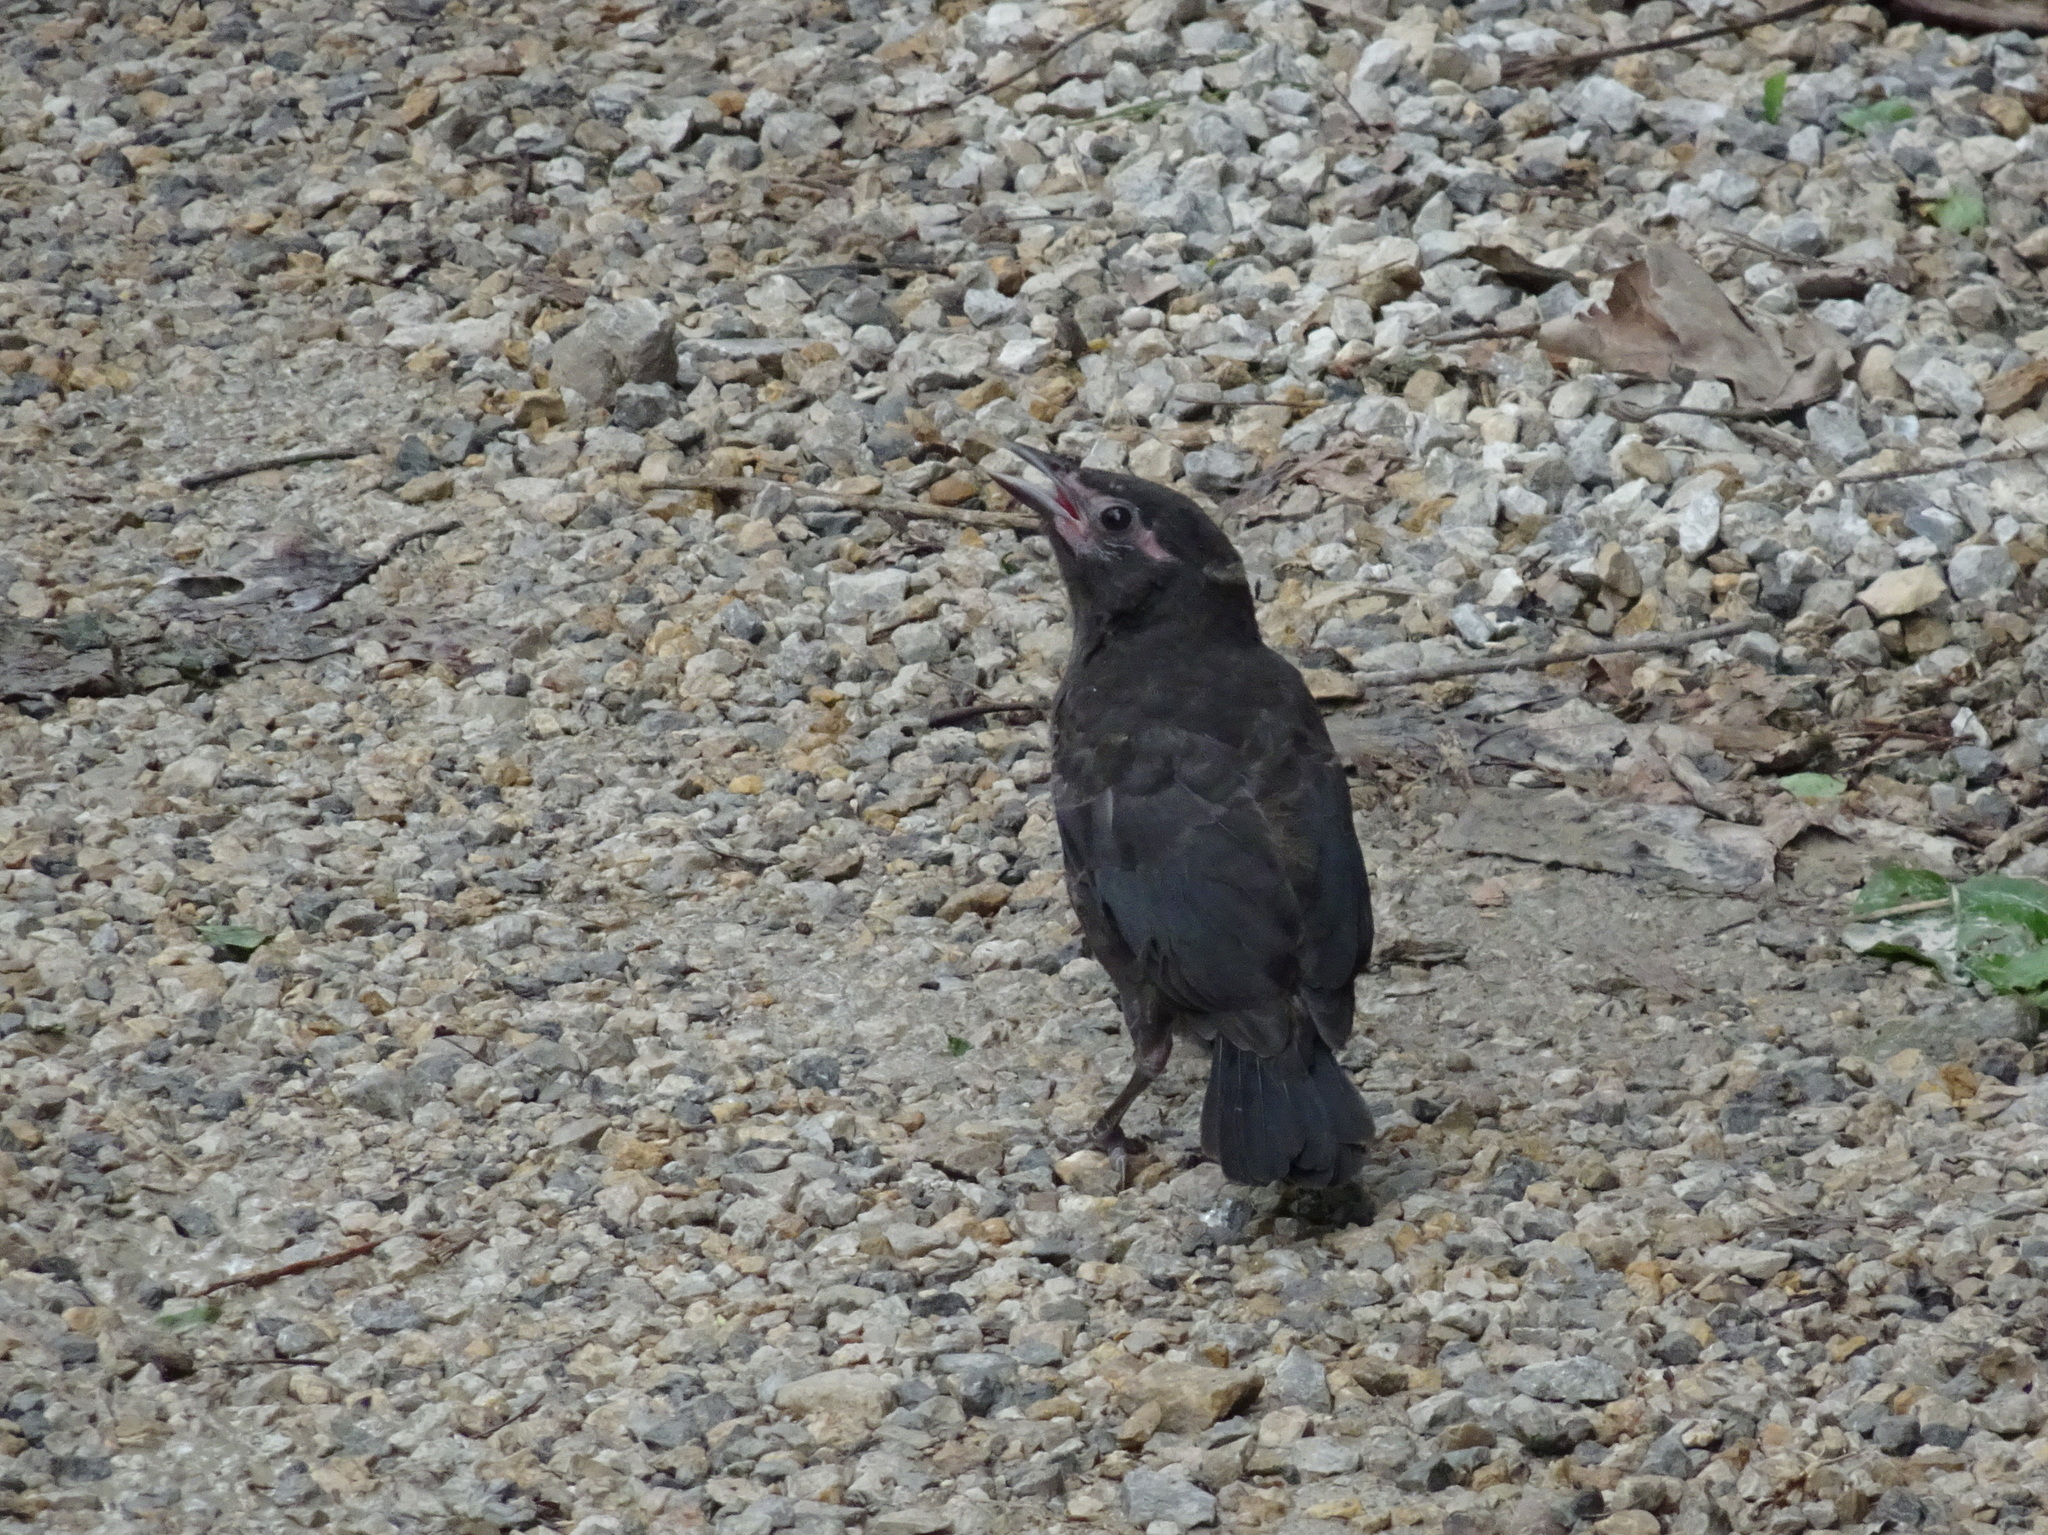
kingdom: Animalia
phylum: Chordata
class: Aves
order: Passeriformes
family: Icteridae
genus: Quiscalus
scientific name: Quiscalus quiscula
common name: Common grackle
